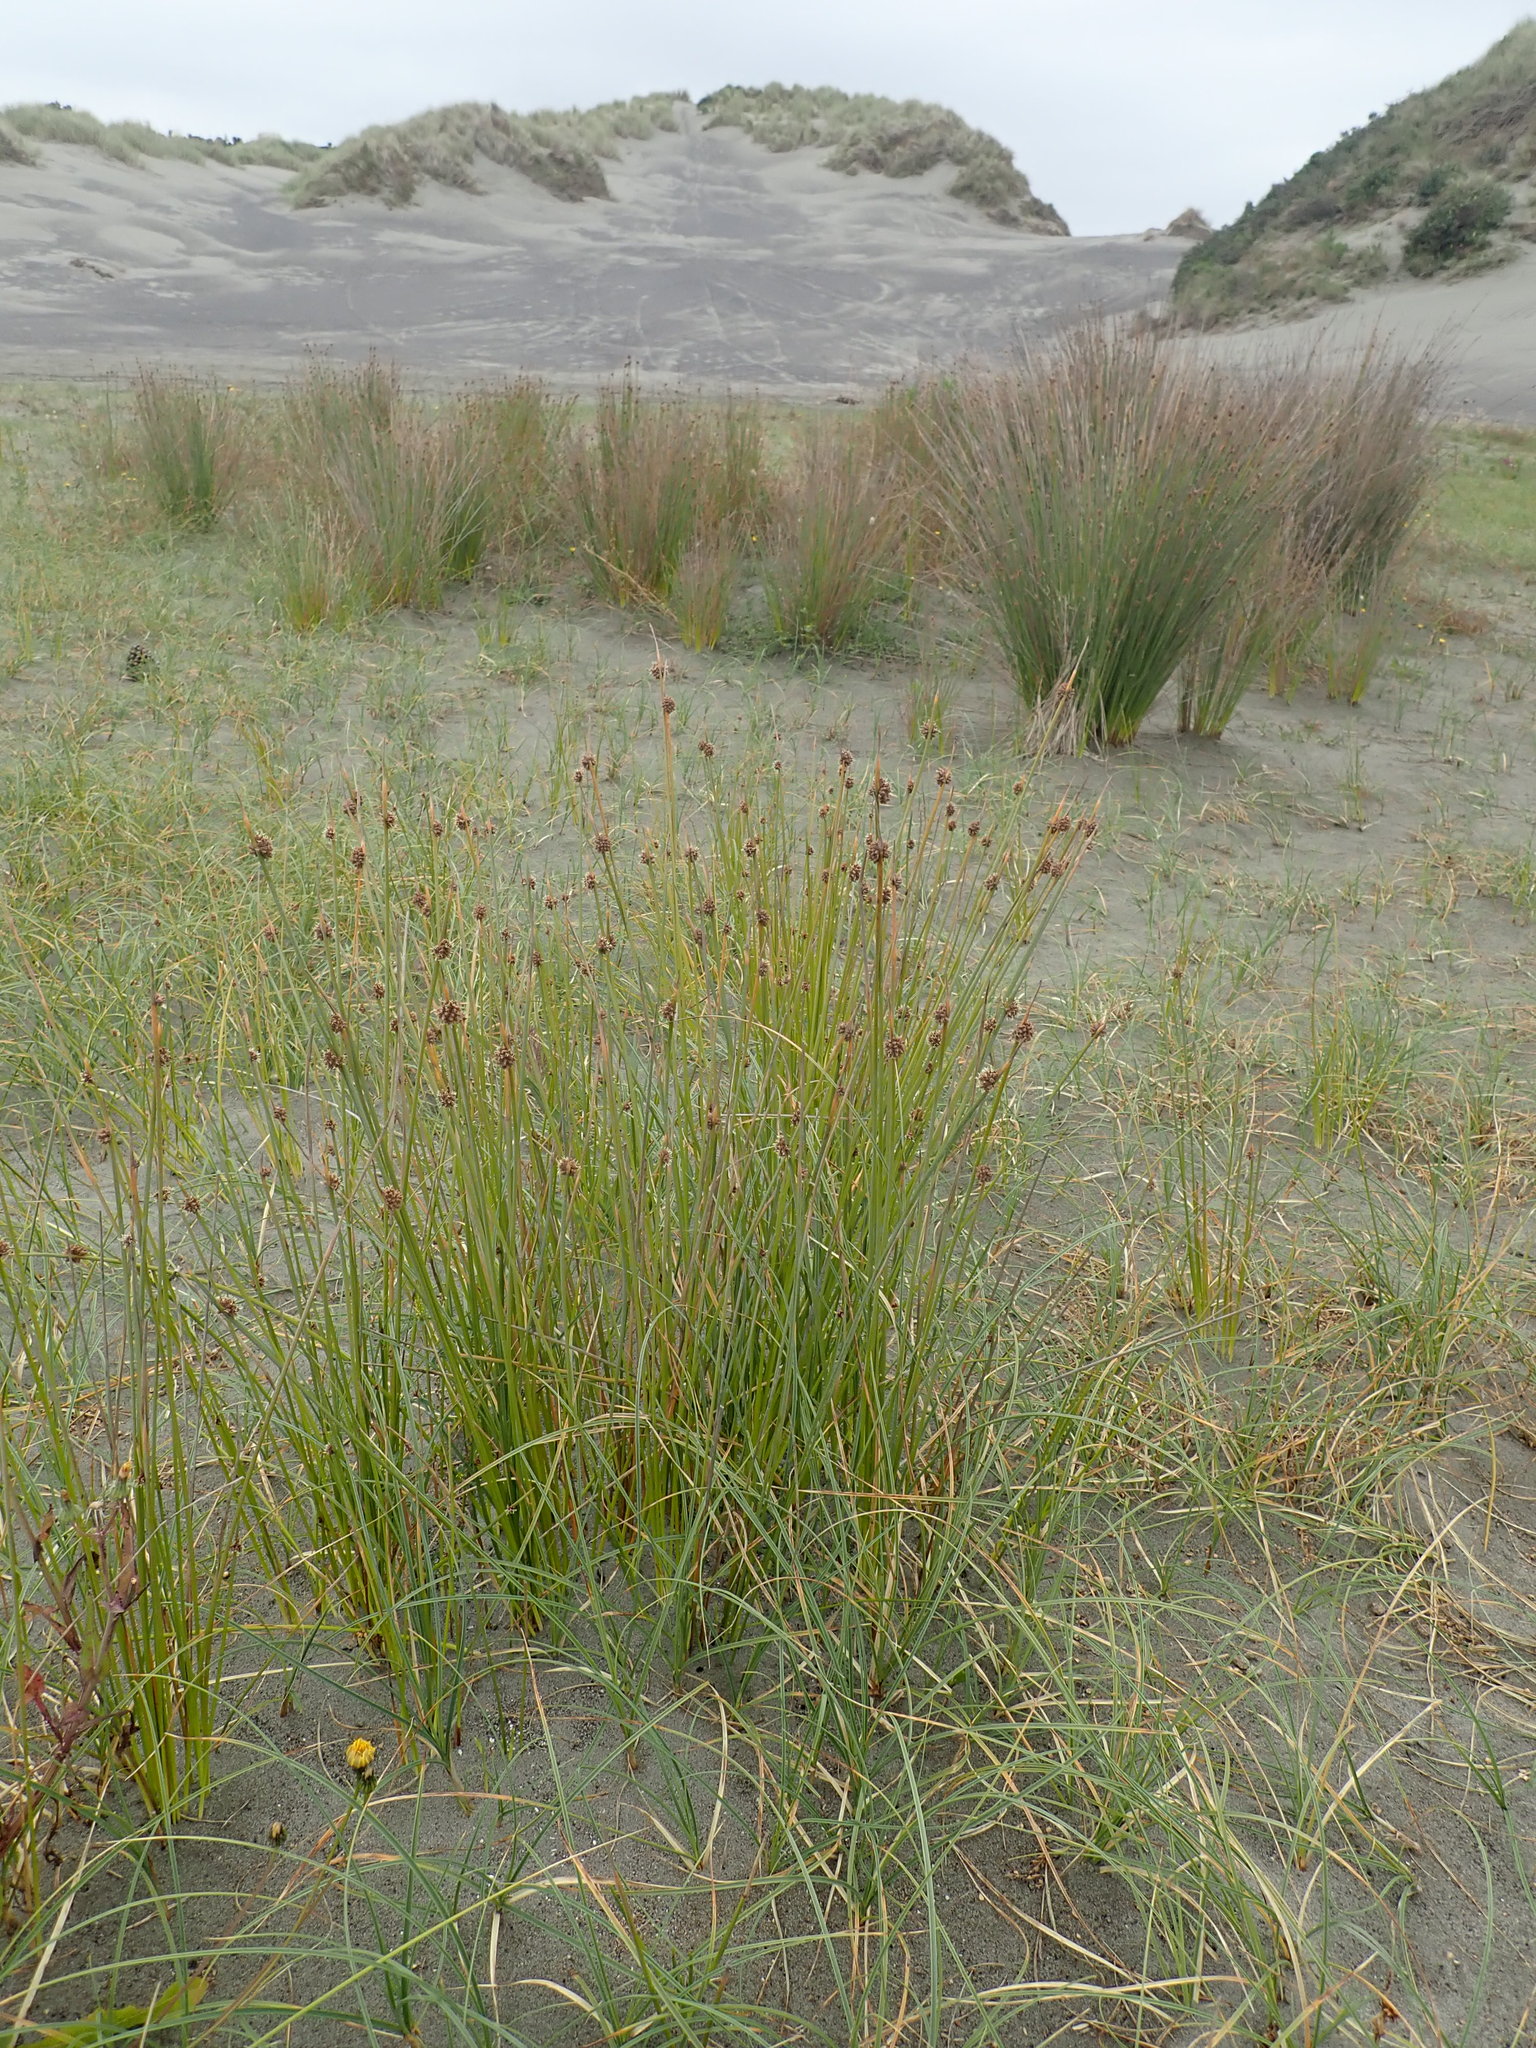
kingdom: Plantae
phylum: Tracheophyta
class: Liliopsida
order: Poales
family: Cyperaceae
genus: Ficinia
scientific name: Ficinia nodosa
